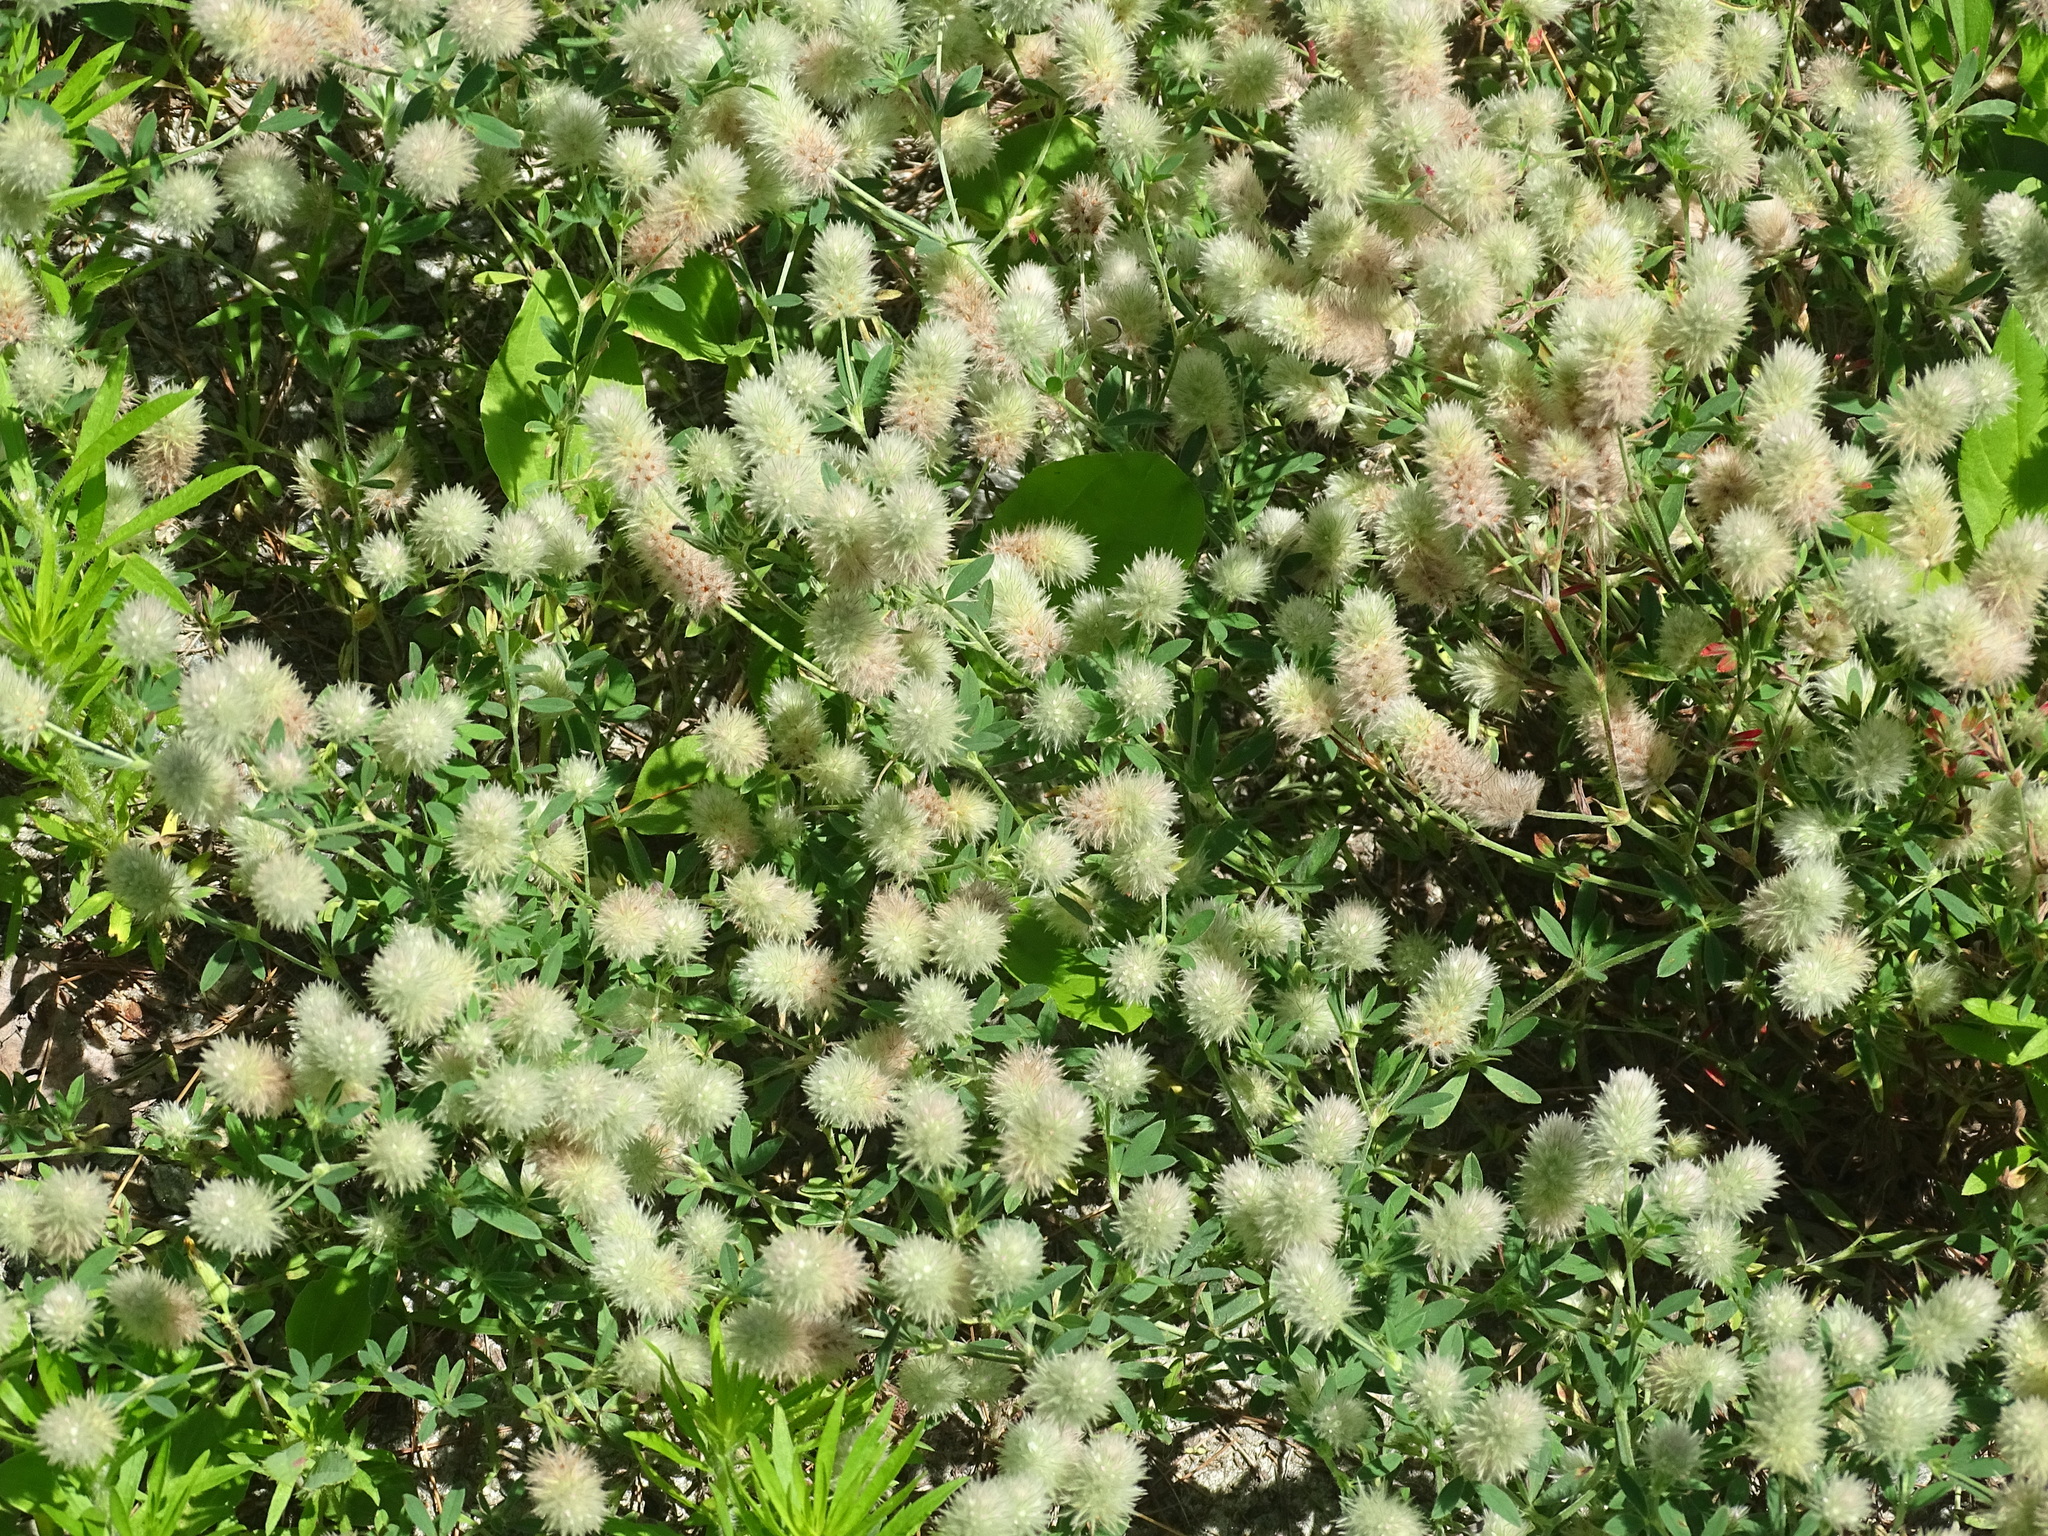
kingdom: Plantae
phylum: Tracheophyta
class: Magnoliopsida
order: Fabales
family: Fabaceae
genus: Trifolium
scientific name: Trifolium arvense
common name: Hare's-foot clover
